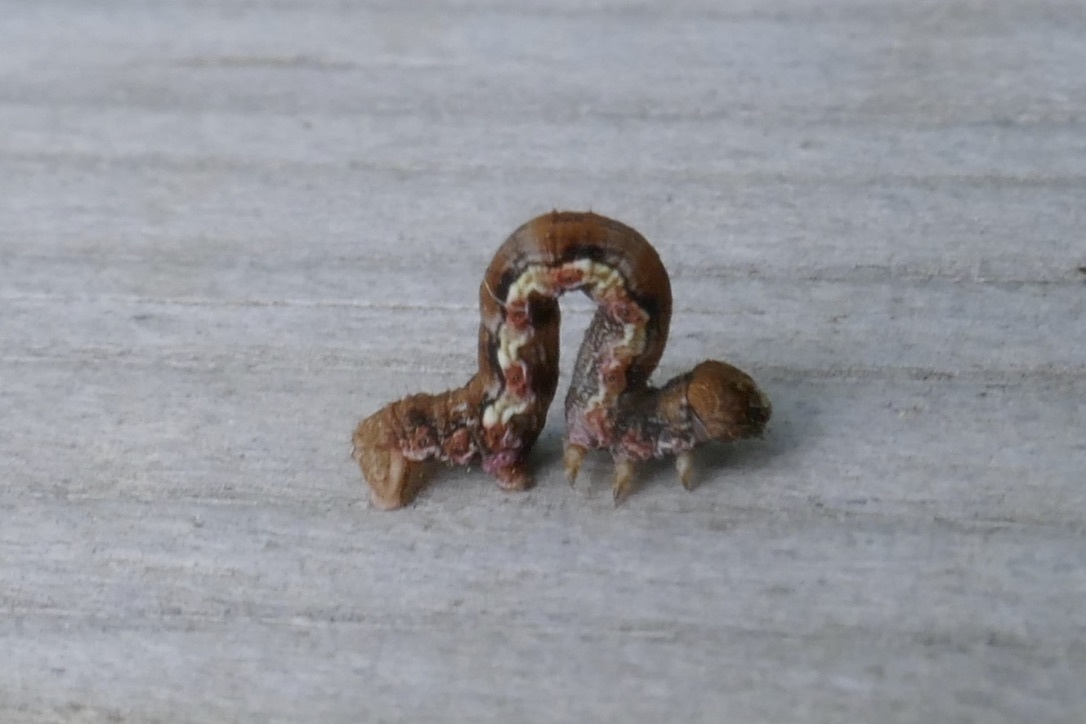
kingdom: Animalia
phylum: Arthropoda
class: Insecta
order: Lepidoptera
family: Geometridae
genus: Erannis
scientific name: Erannis defoliaria
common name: Mottled umber
